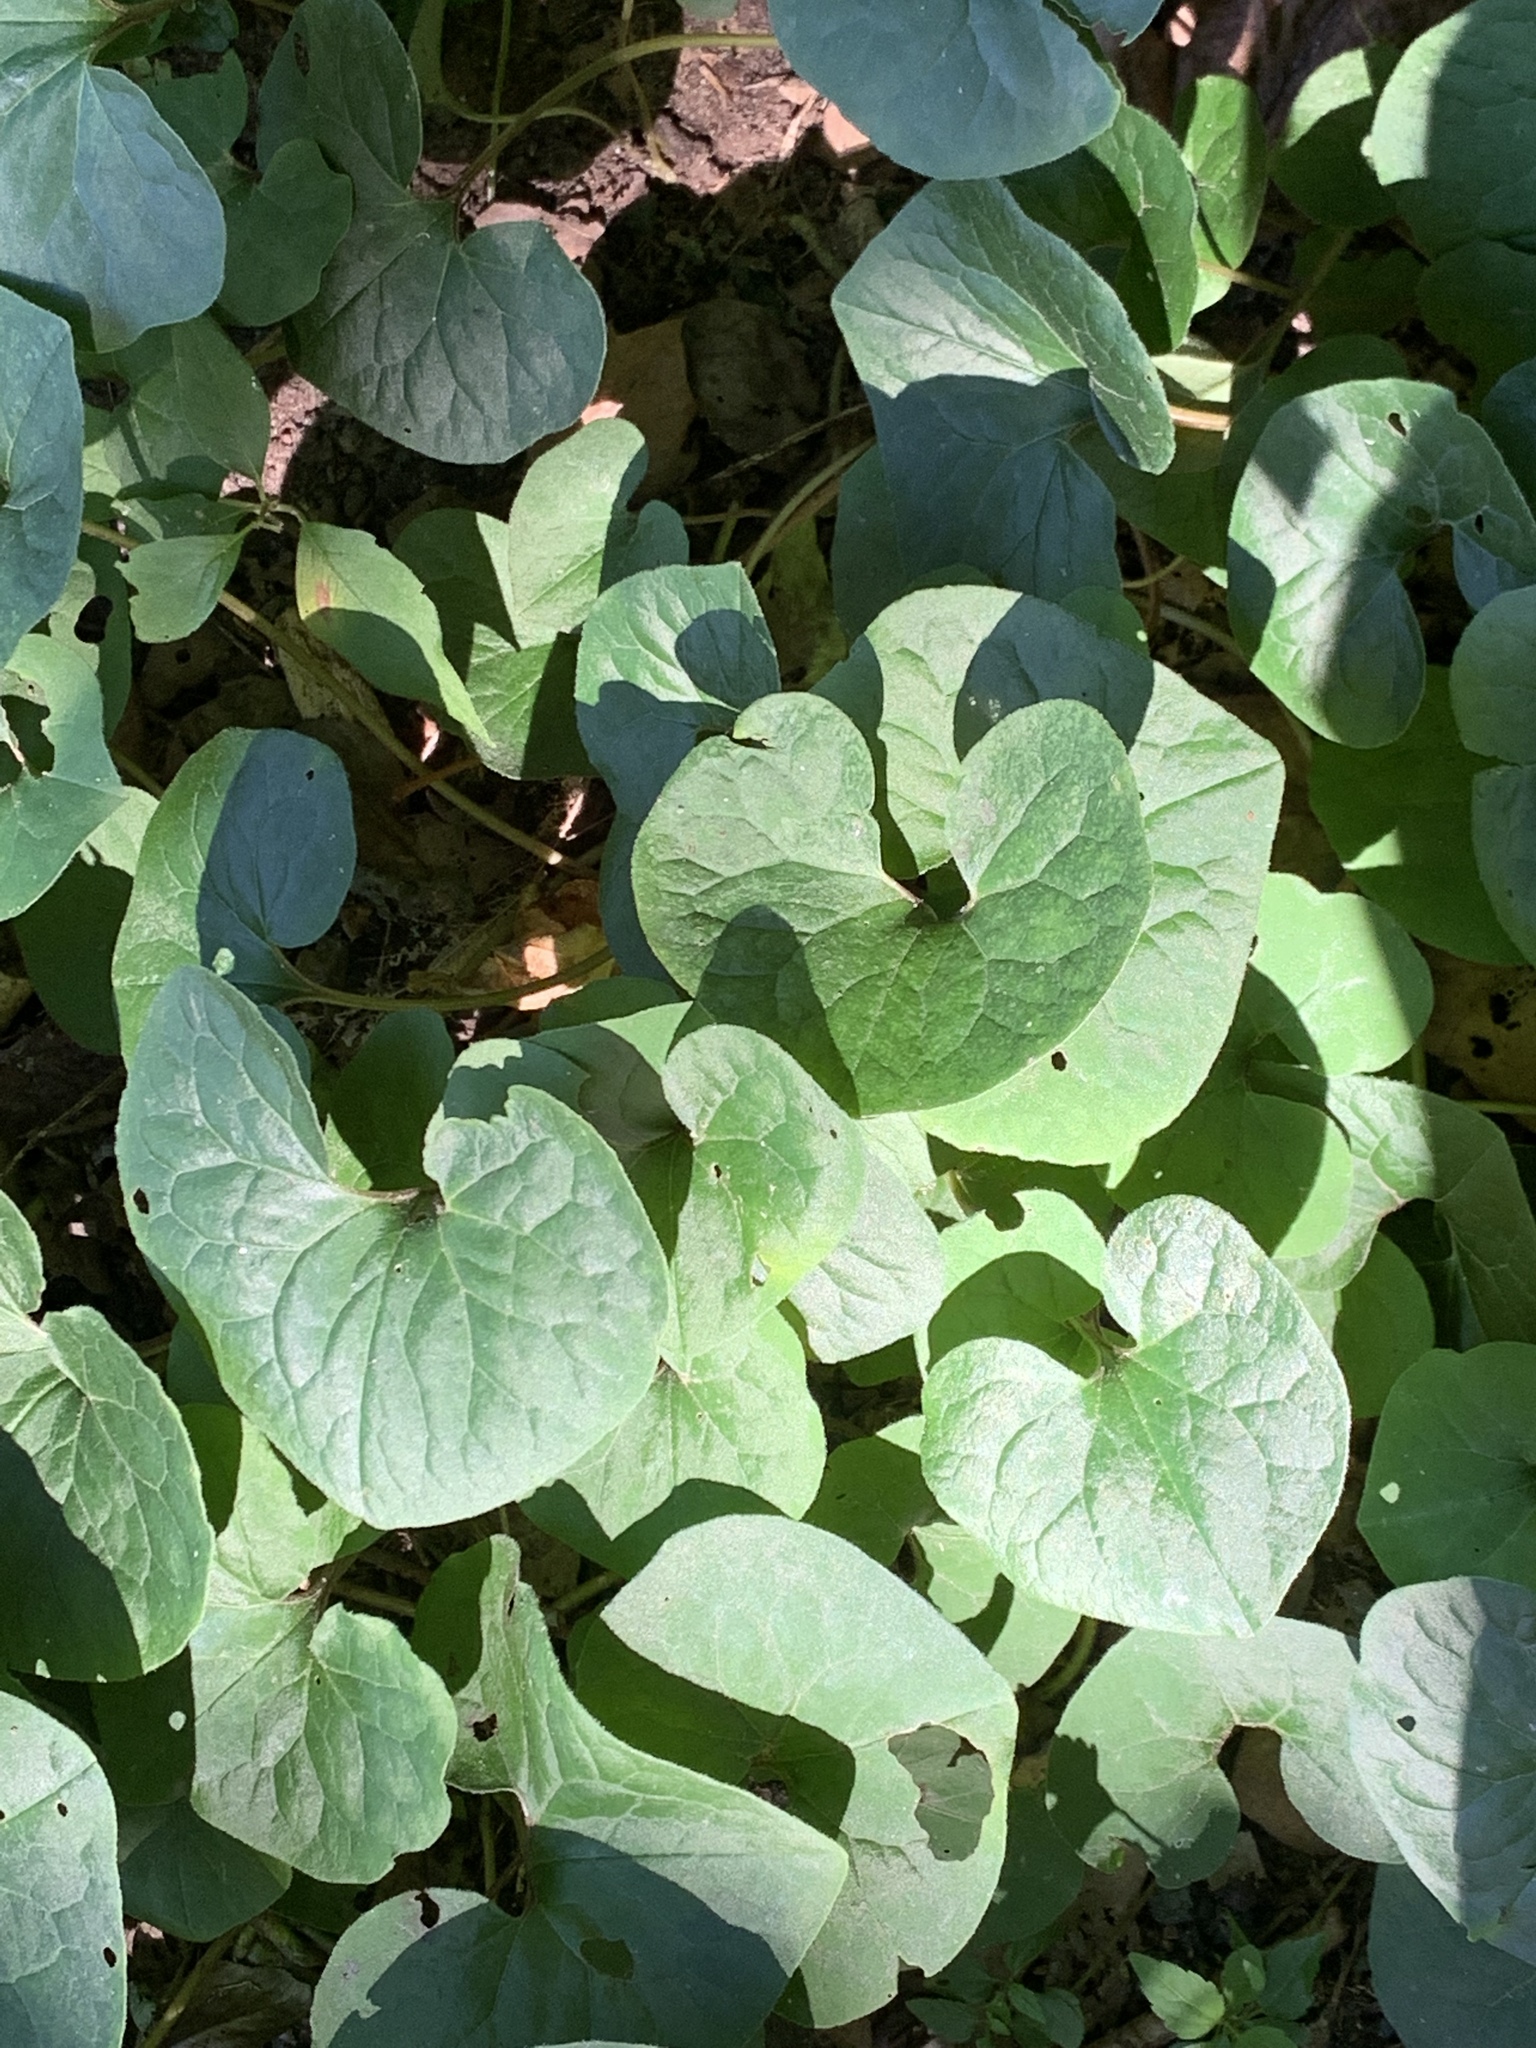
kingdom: Plantae
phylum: Tracheophyta
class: Magnoliopsida
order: Piperales
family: Aristolochiaceae
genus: Asarum
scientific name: Asarum canadense
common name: Wild ginger
